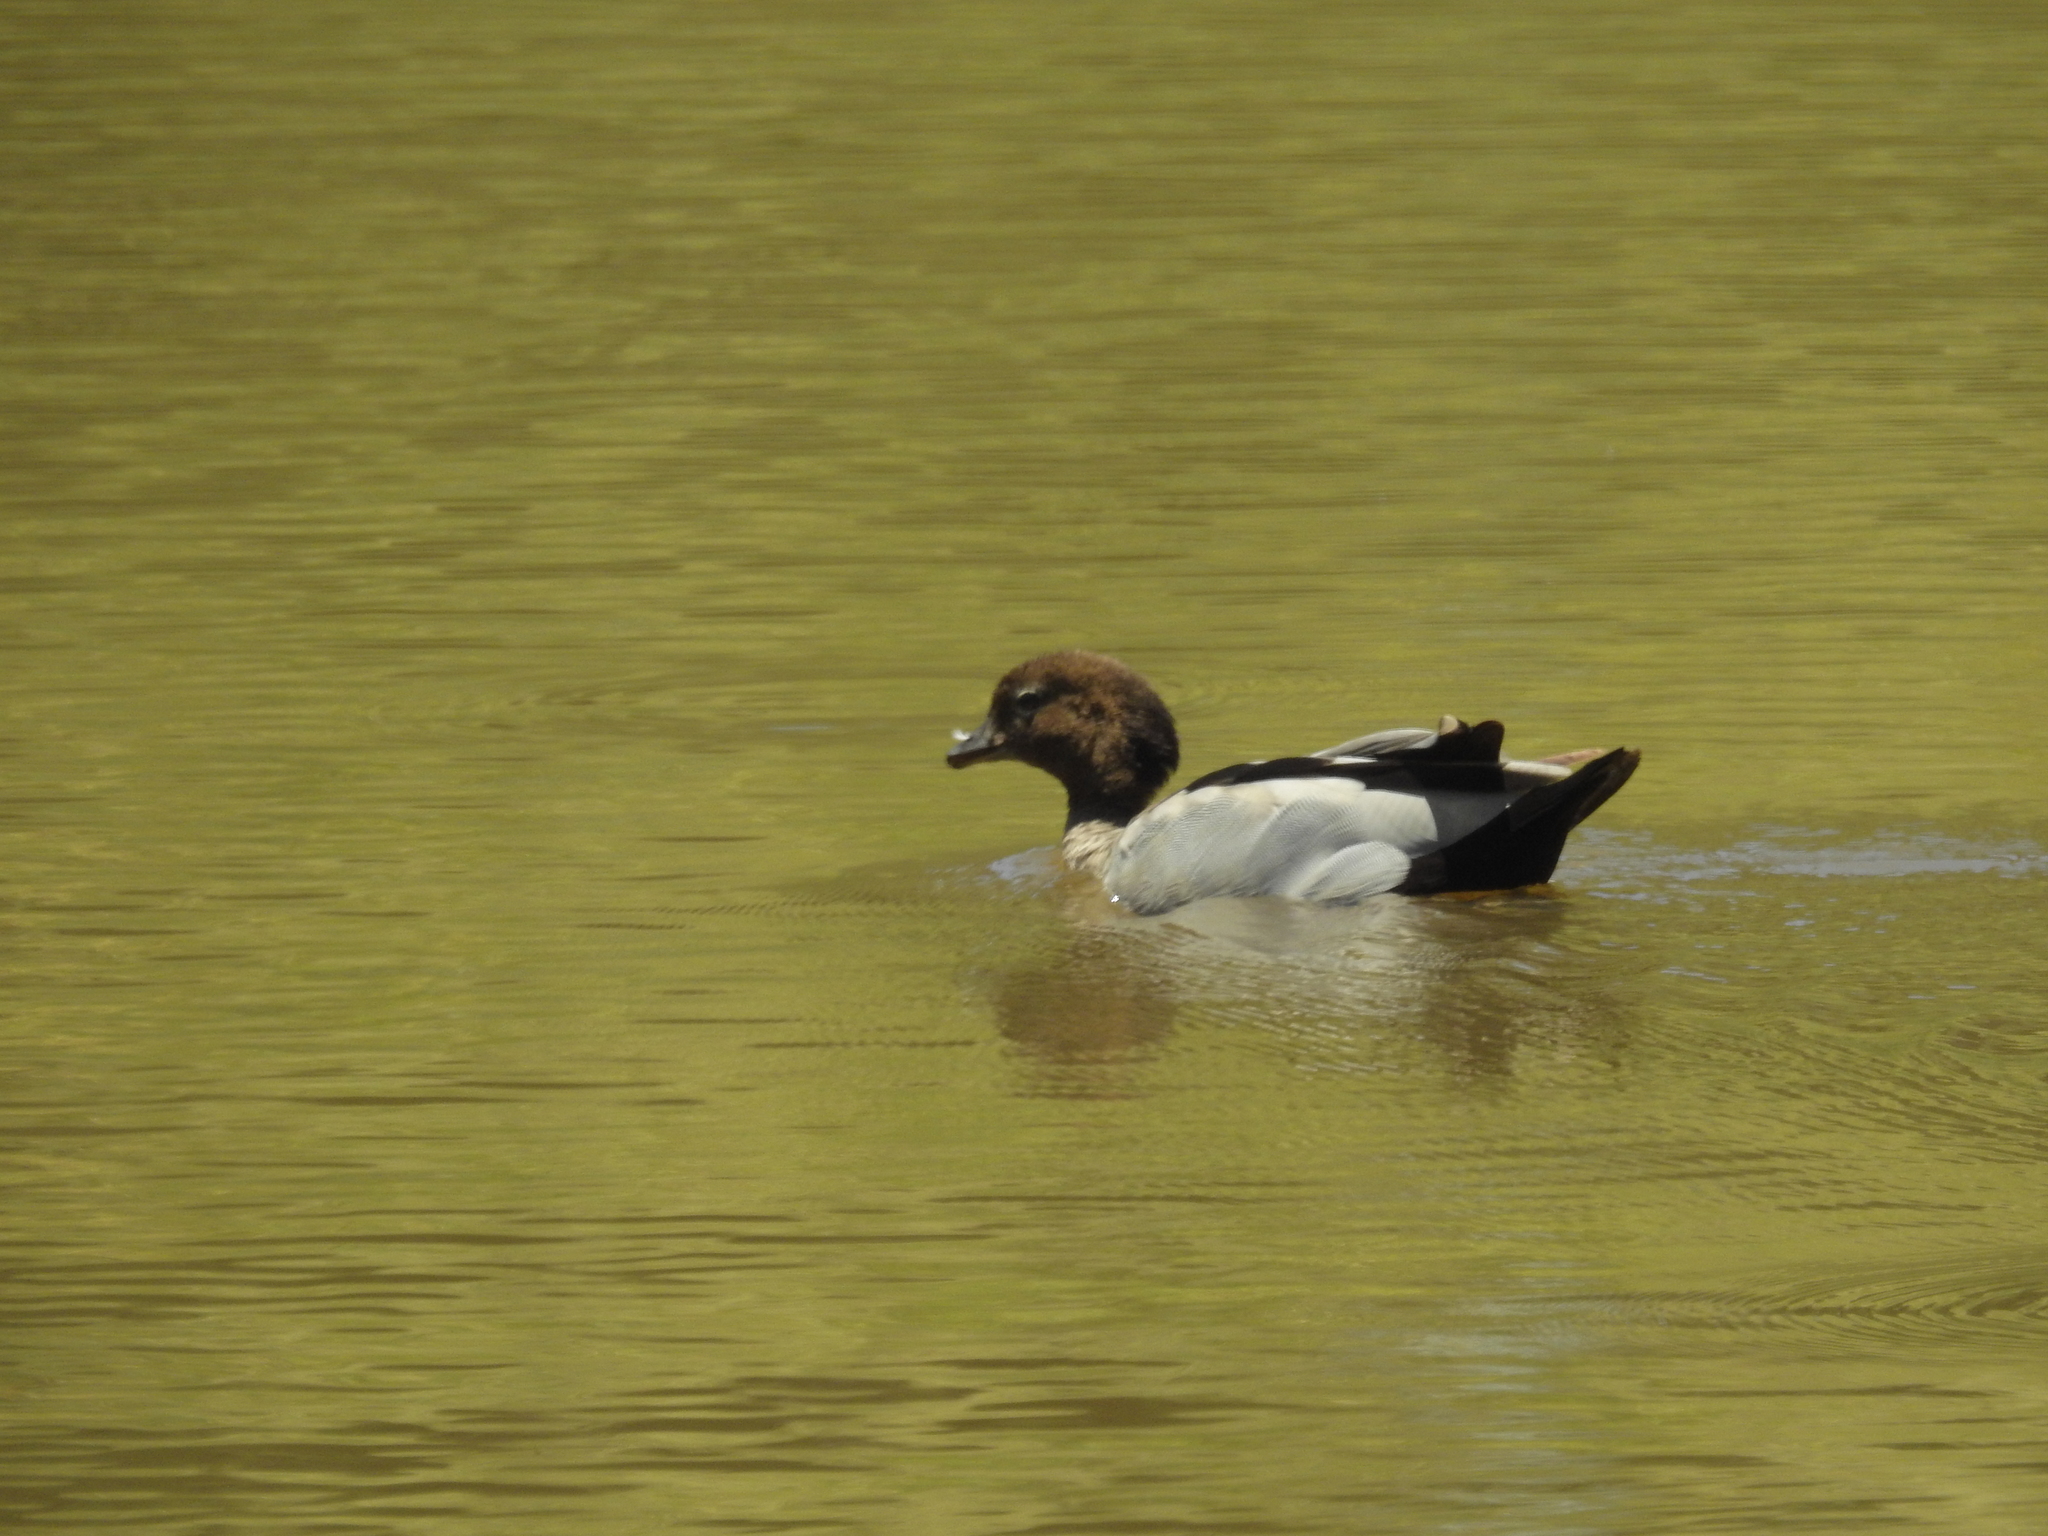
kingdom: Animalia
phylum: Chordata
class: Aves
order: Anseriformes
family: Anatidae
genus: Chenonetta
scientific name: Chenonetta jubata
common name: Maned duck
